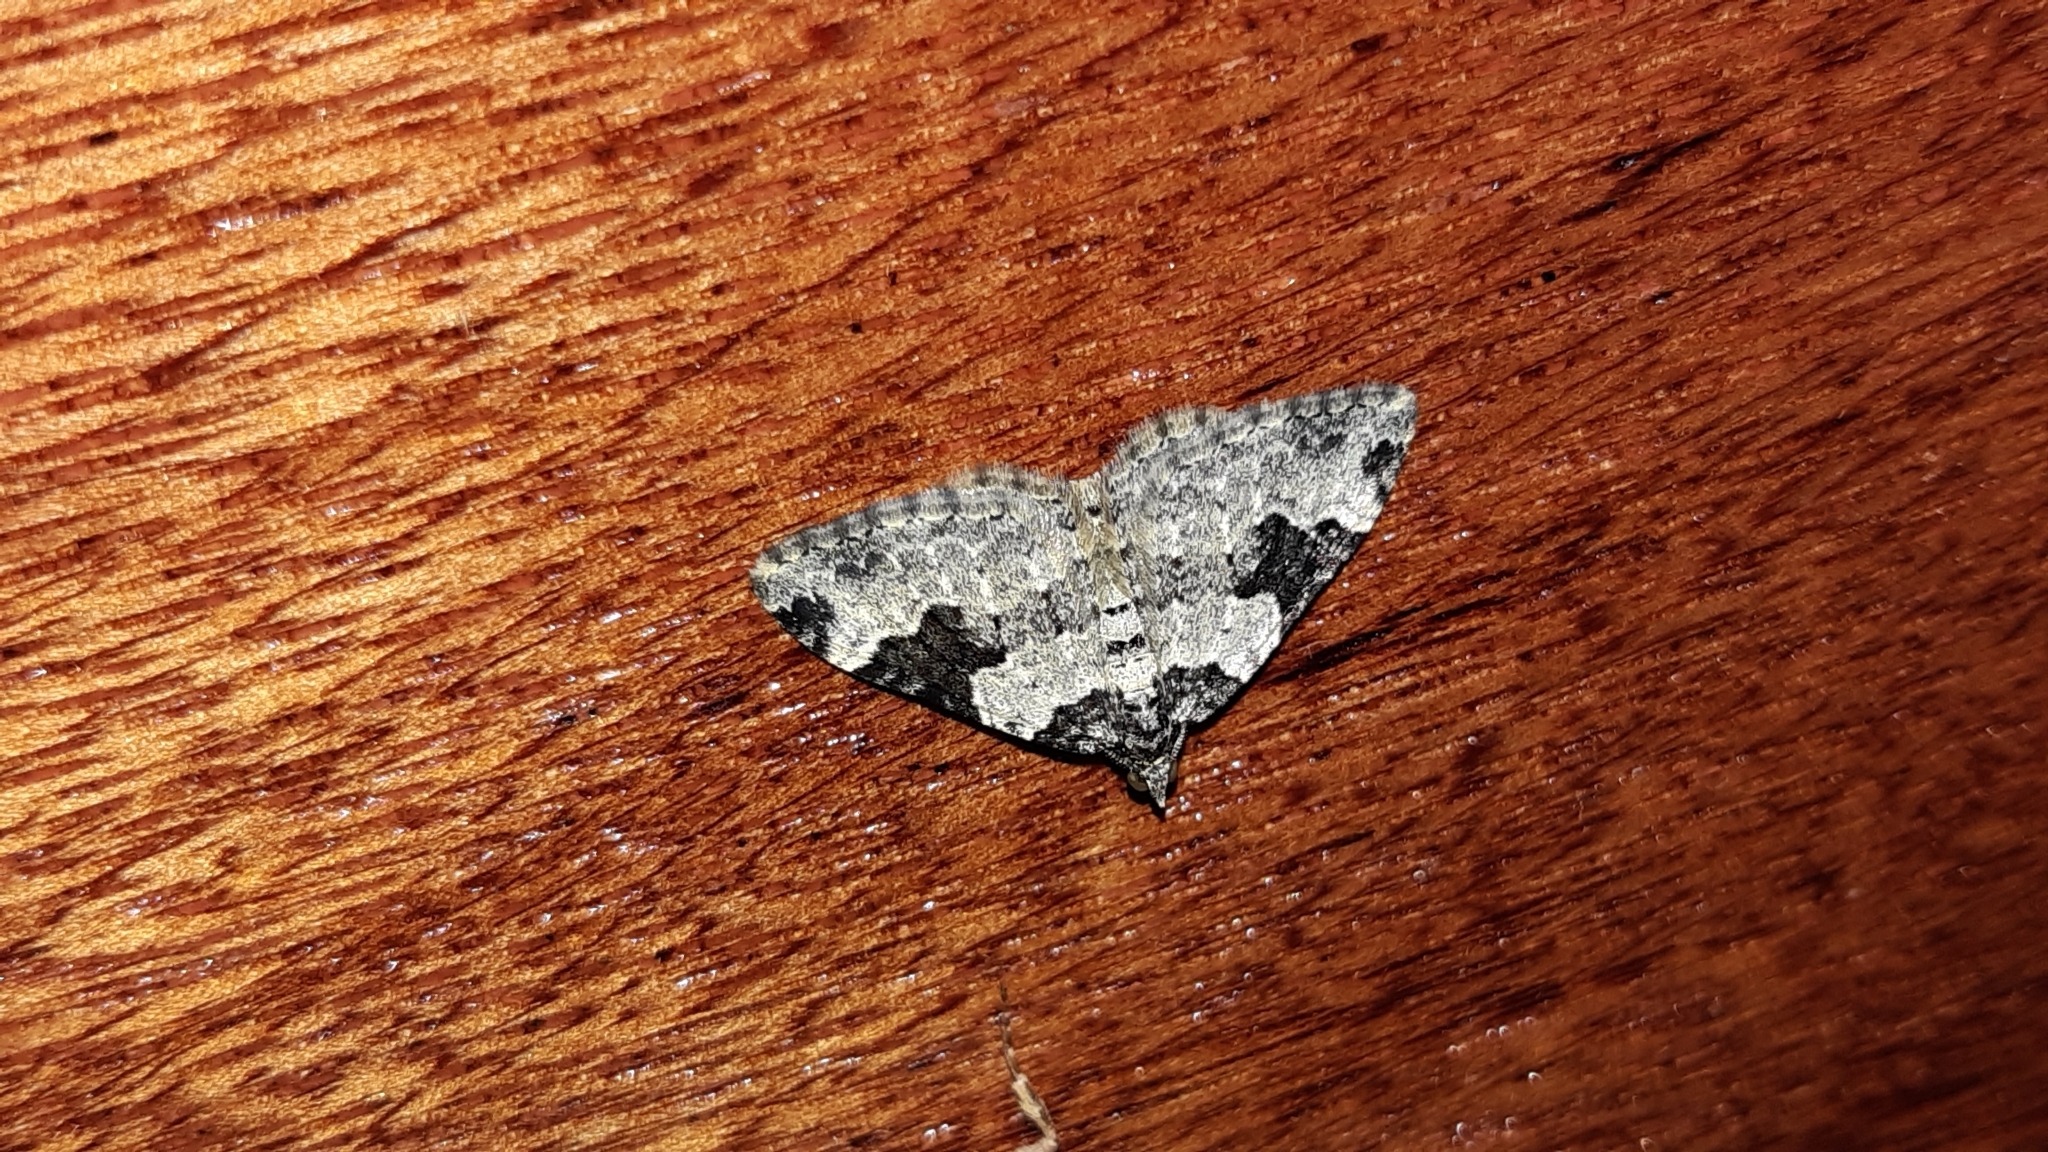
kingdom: Animalia
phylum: Arthropoda
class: Insecta
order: Lepidoptera
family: Geometridae
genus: Xanthorhoe
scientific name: Xanthorhoe fluctuata
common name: Garden carpet
